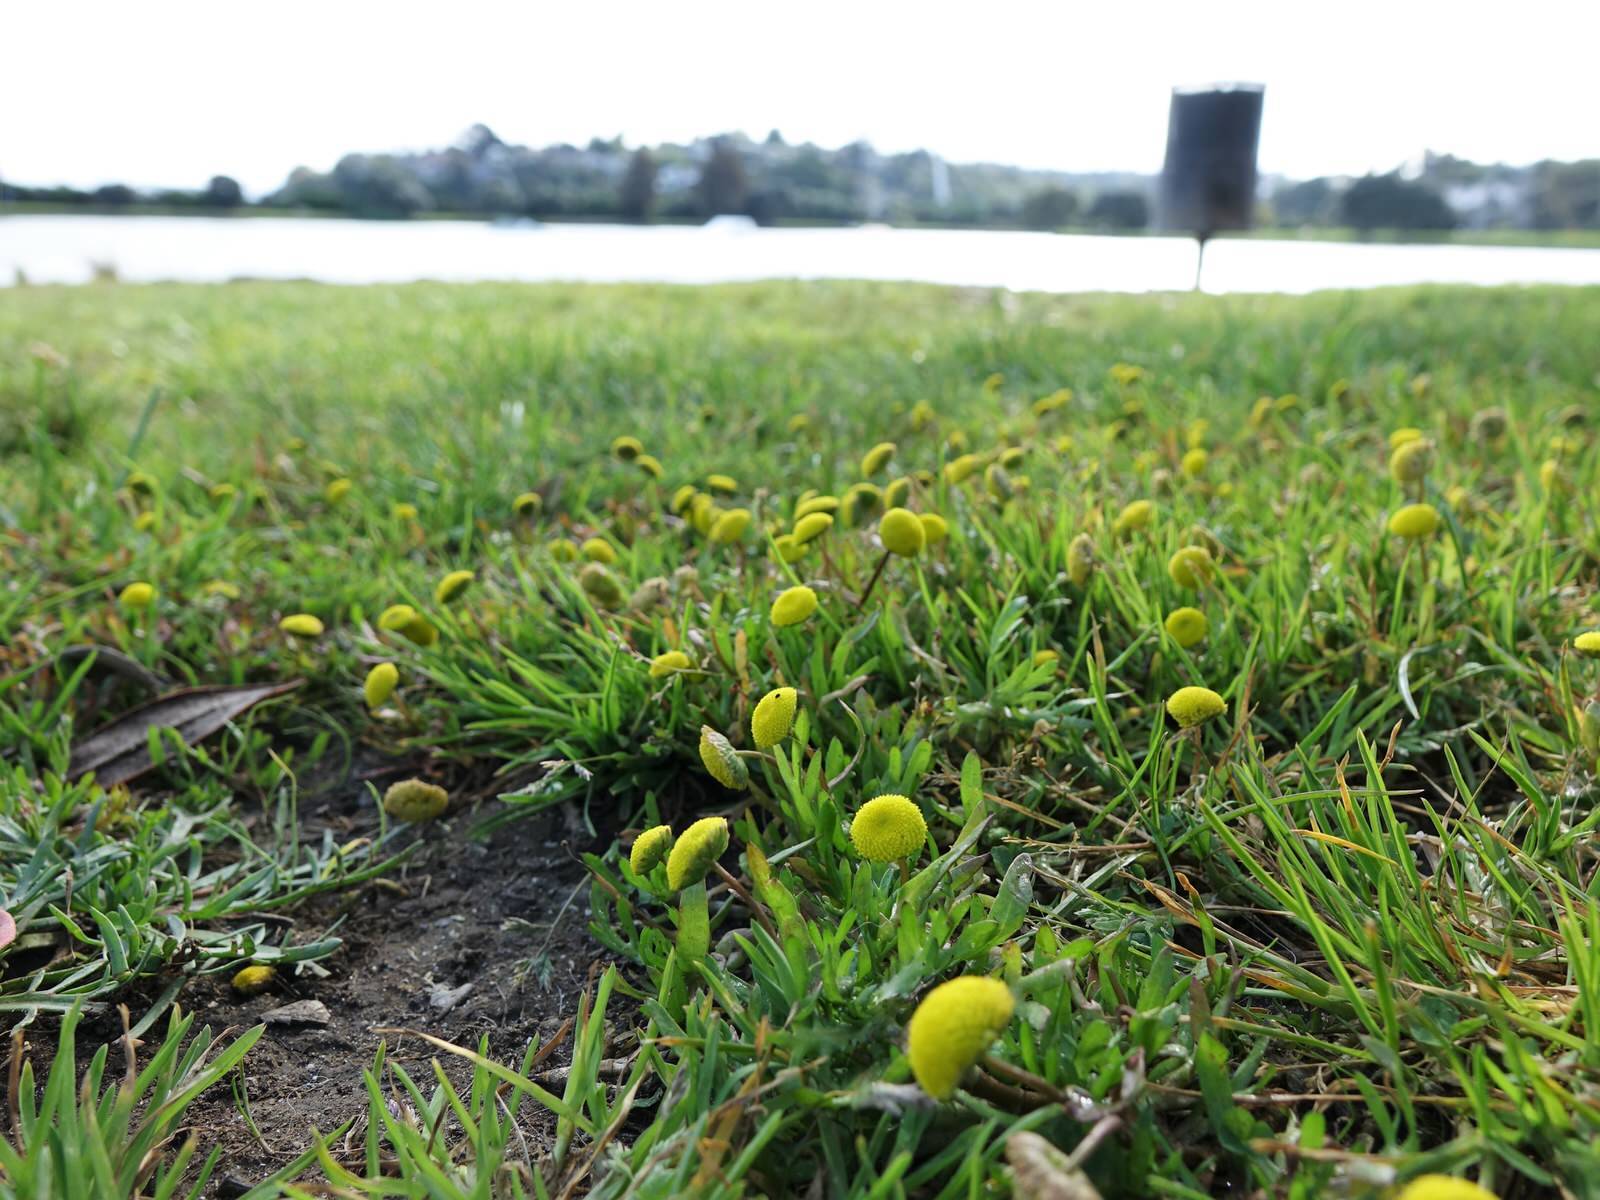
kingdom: Plantae
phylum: Tracheophyta
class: Magnoliopsida
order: Asterales
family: Asteraceae
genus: Cotula
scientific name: Cotula coronopifolia
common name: Buttonweed
